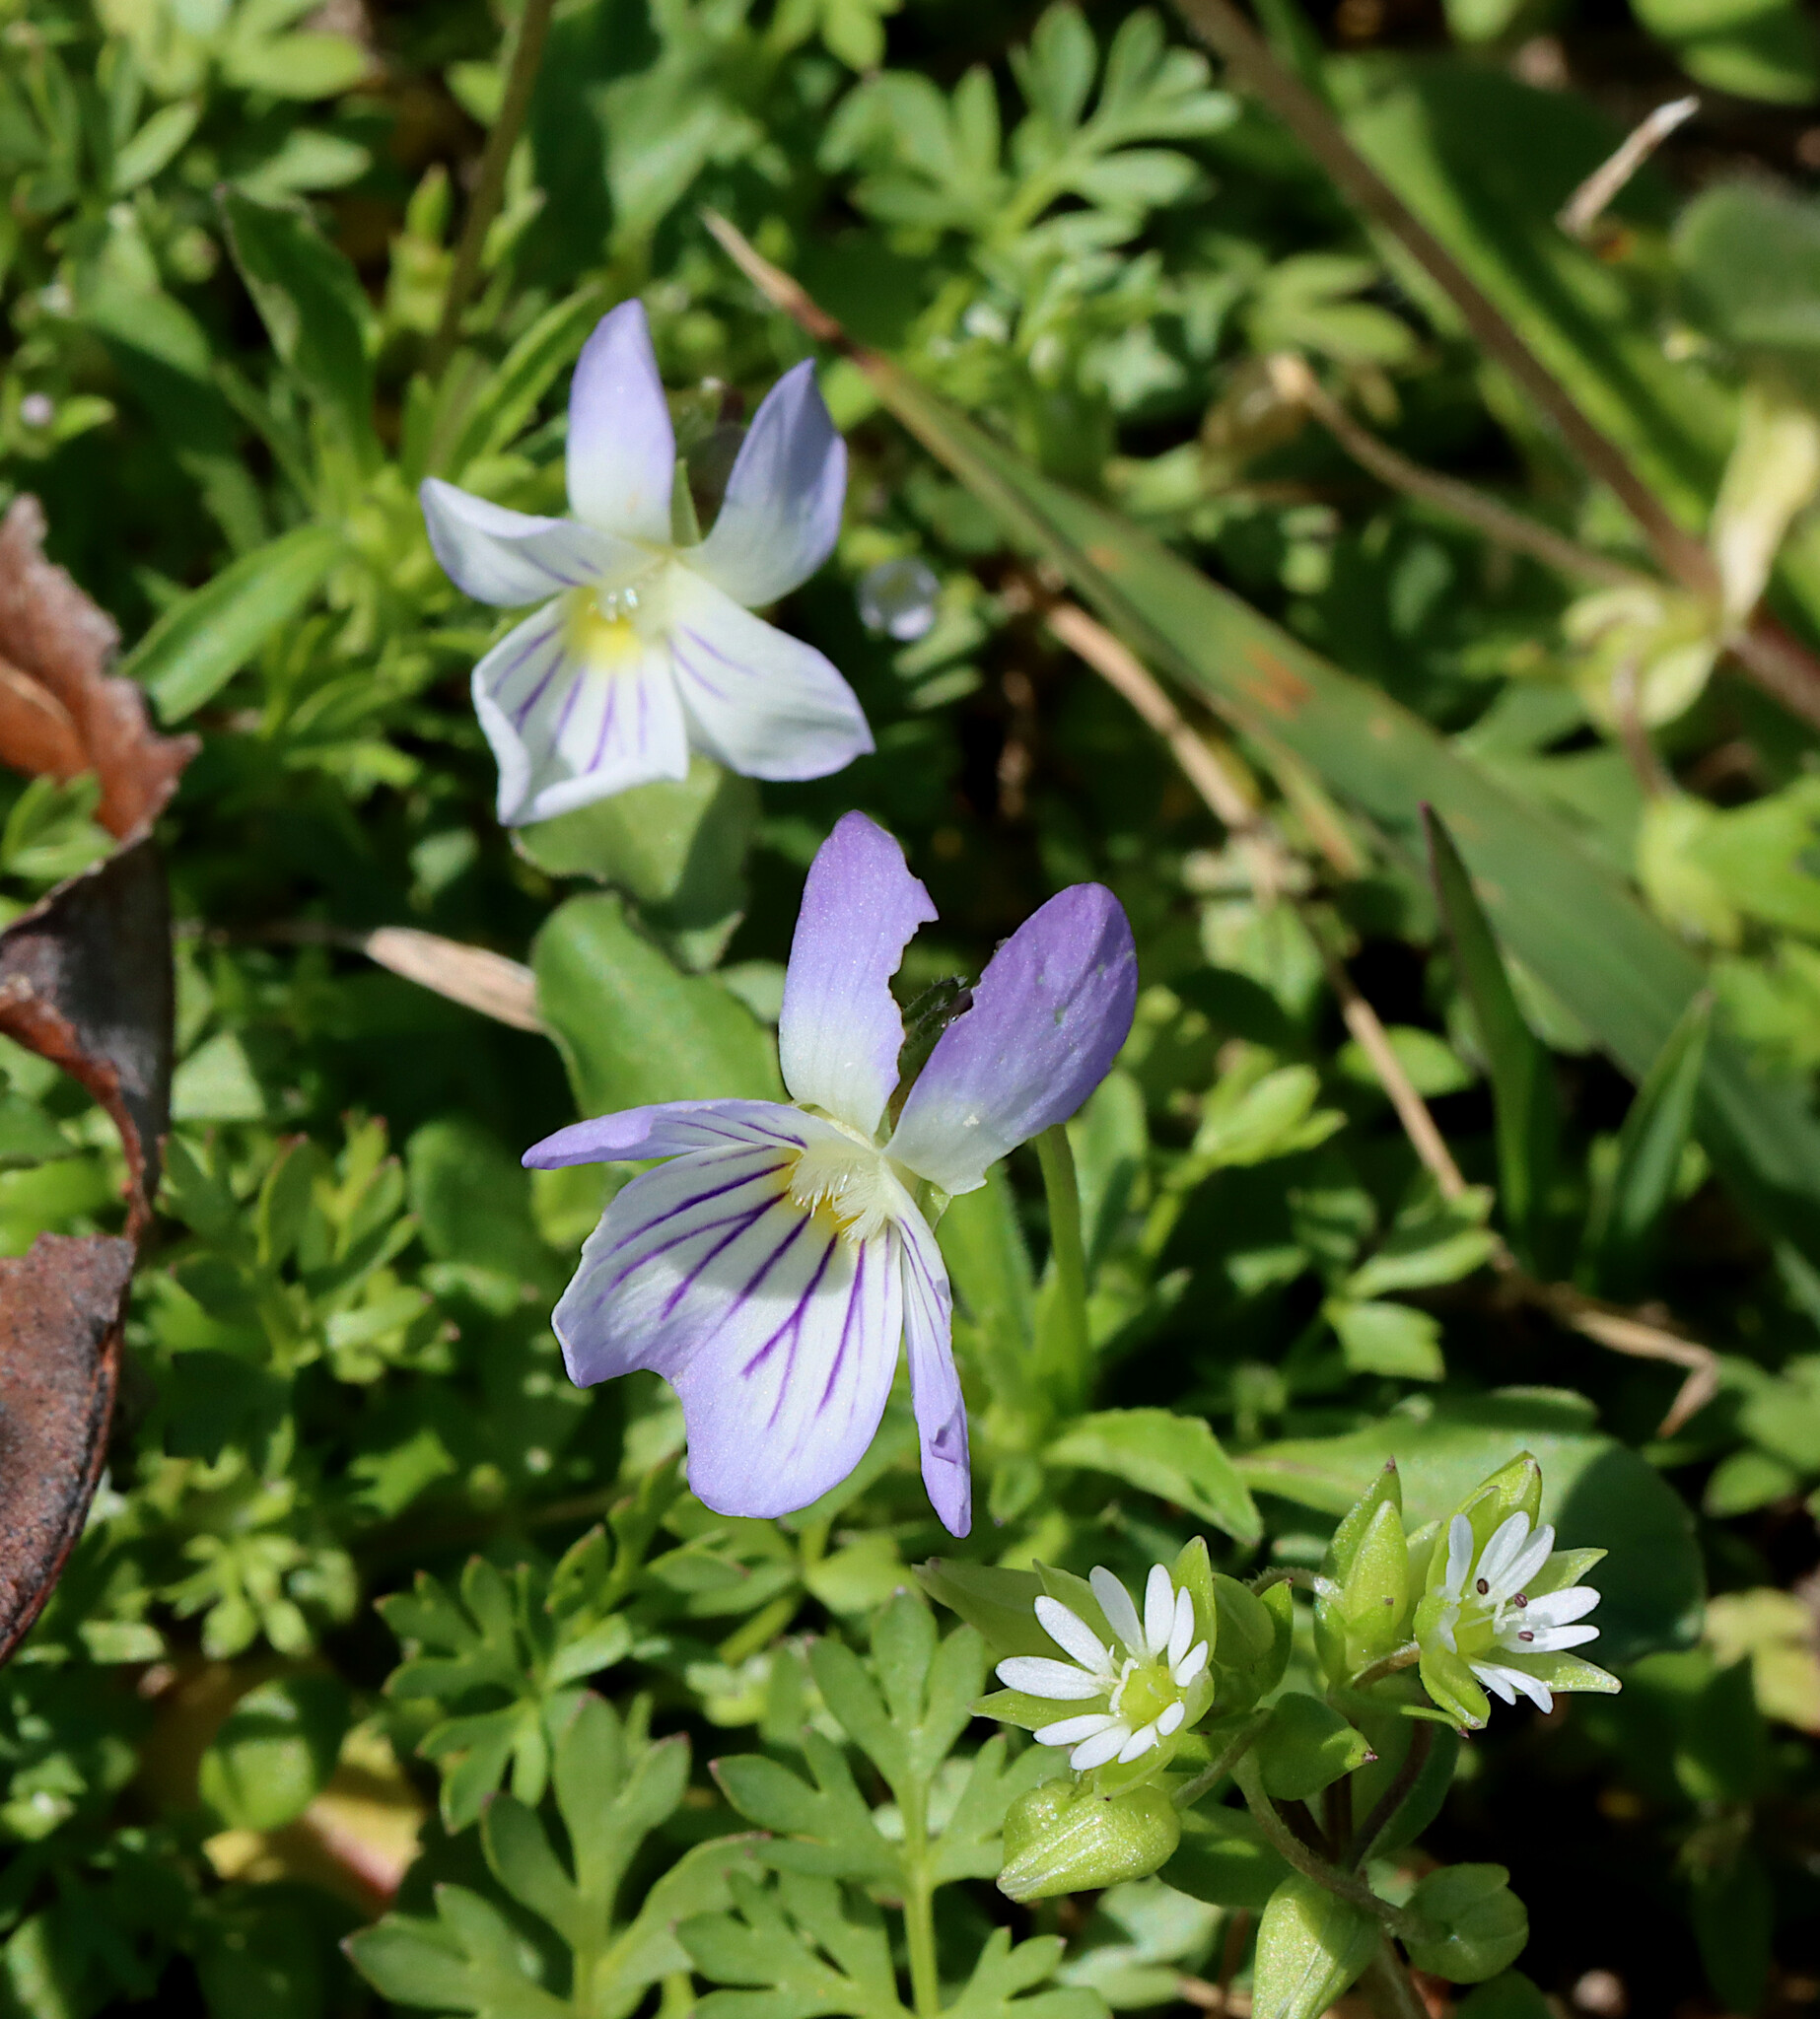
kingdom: Plantae
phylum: Tracheophyta
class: Magnoliopsida
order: Malpighiales
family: Violaceae
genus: Viola
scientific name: Viola rafinesquei
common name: American field pansy
